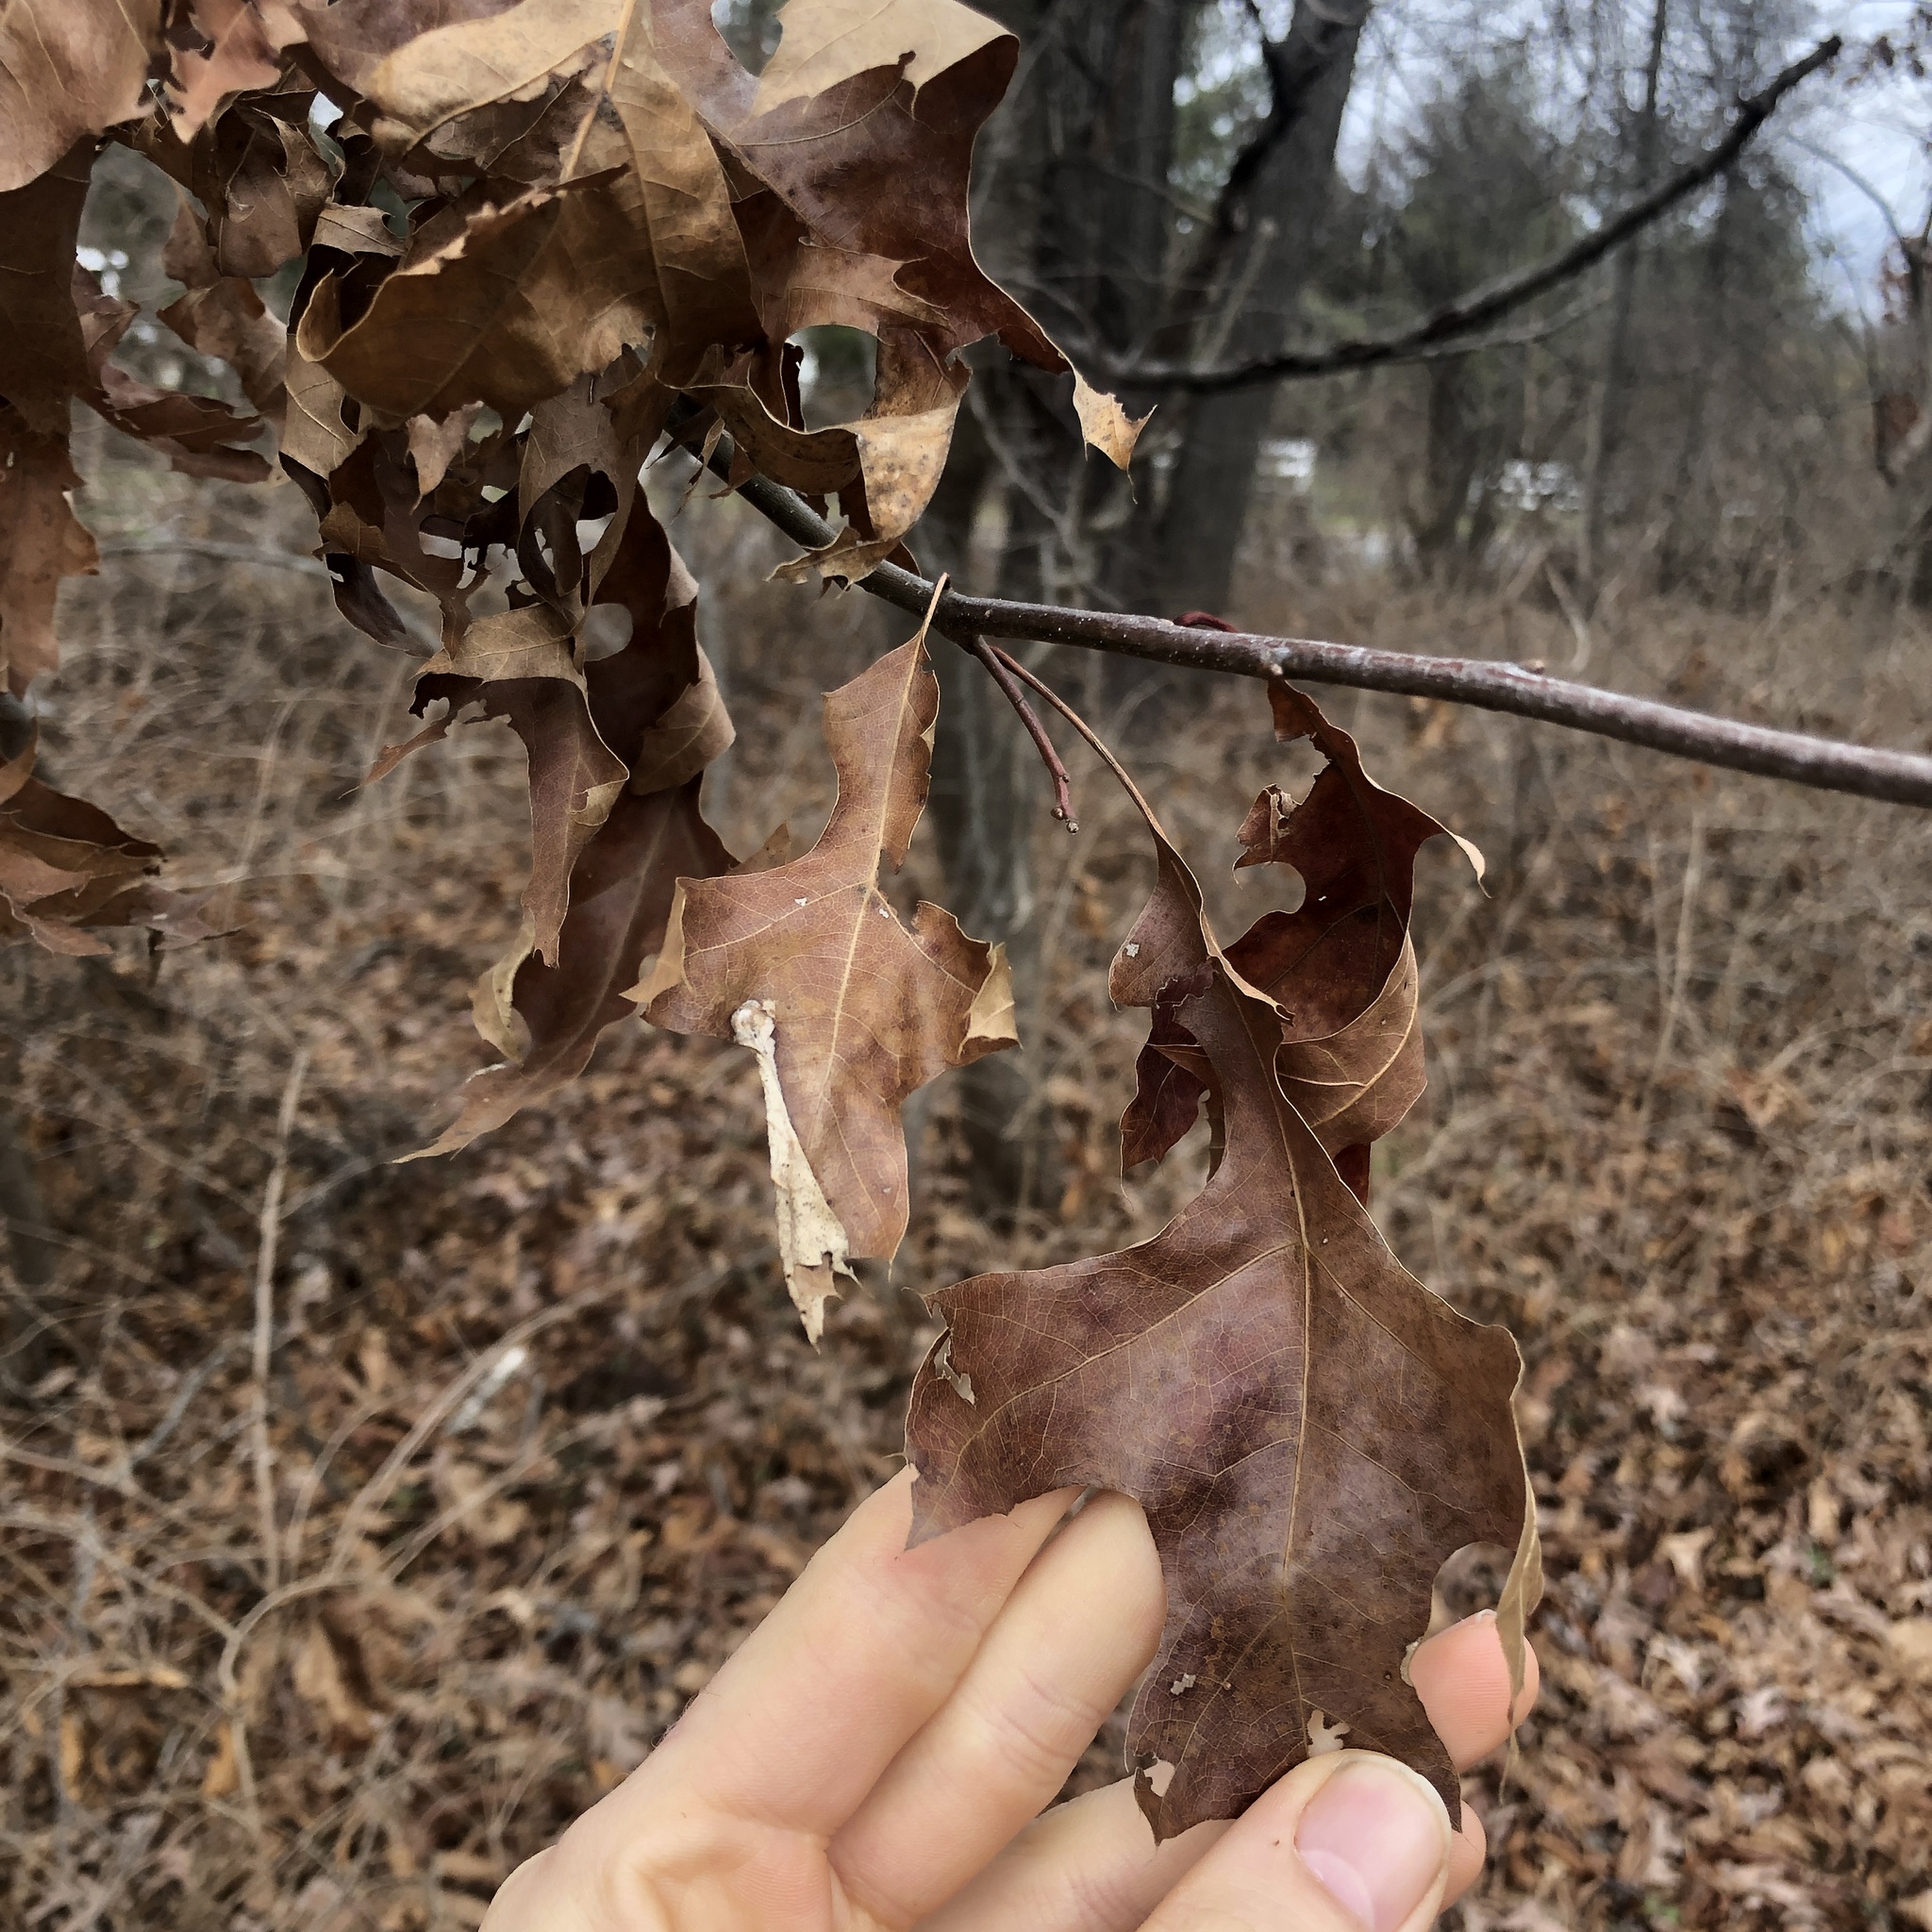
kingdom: Plantae
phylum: Tracheophyta
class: Magnoliopsida
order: Fagales
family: Fagaceae
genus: Quercus
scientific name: Quercus palustris
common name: Pin oak
